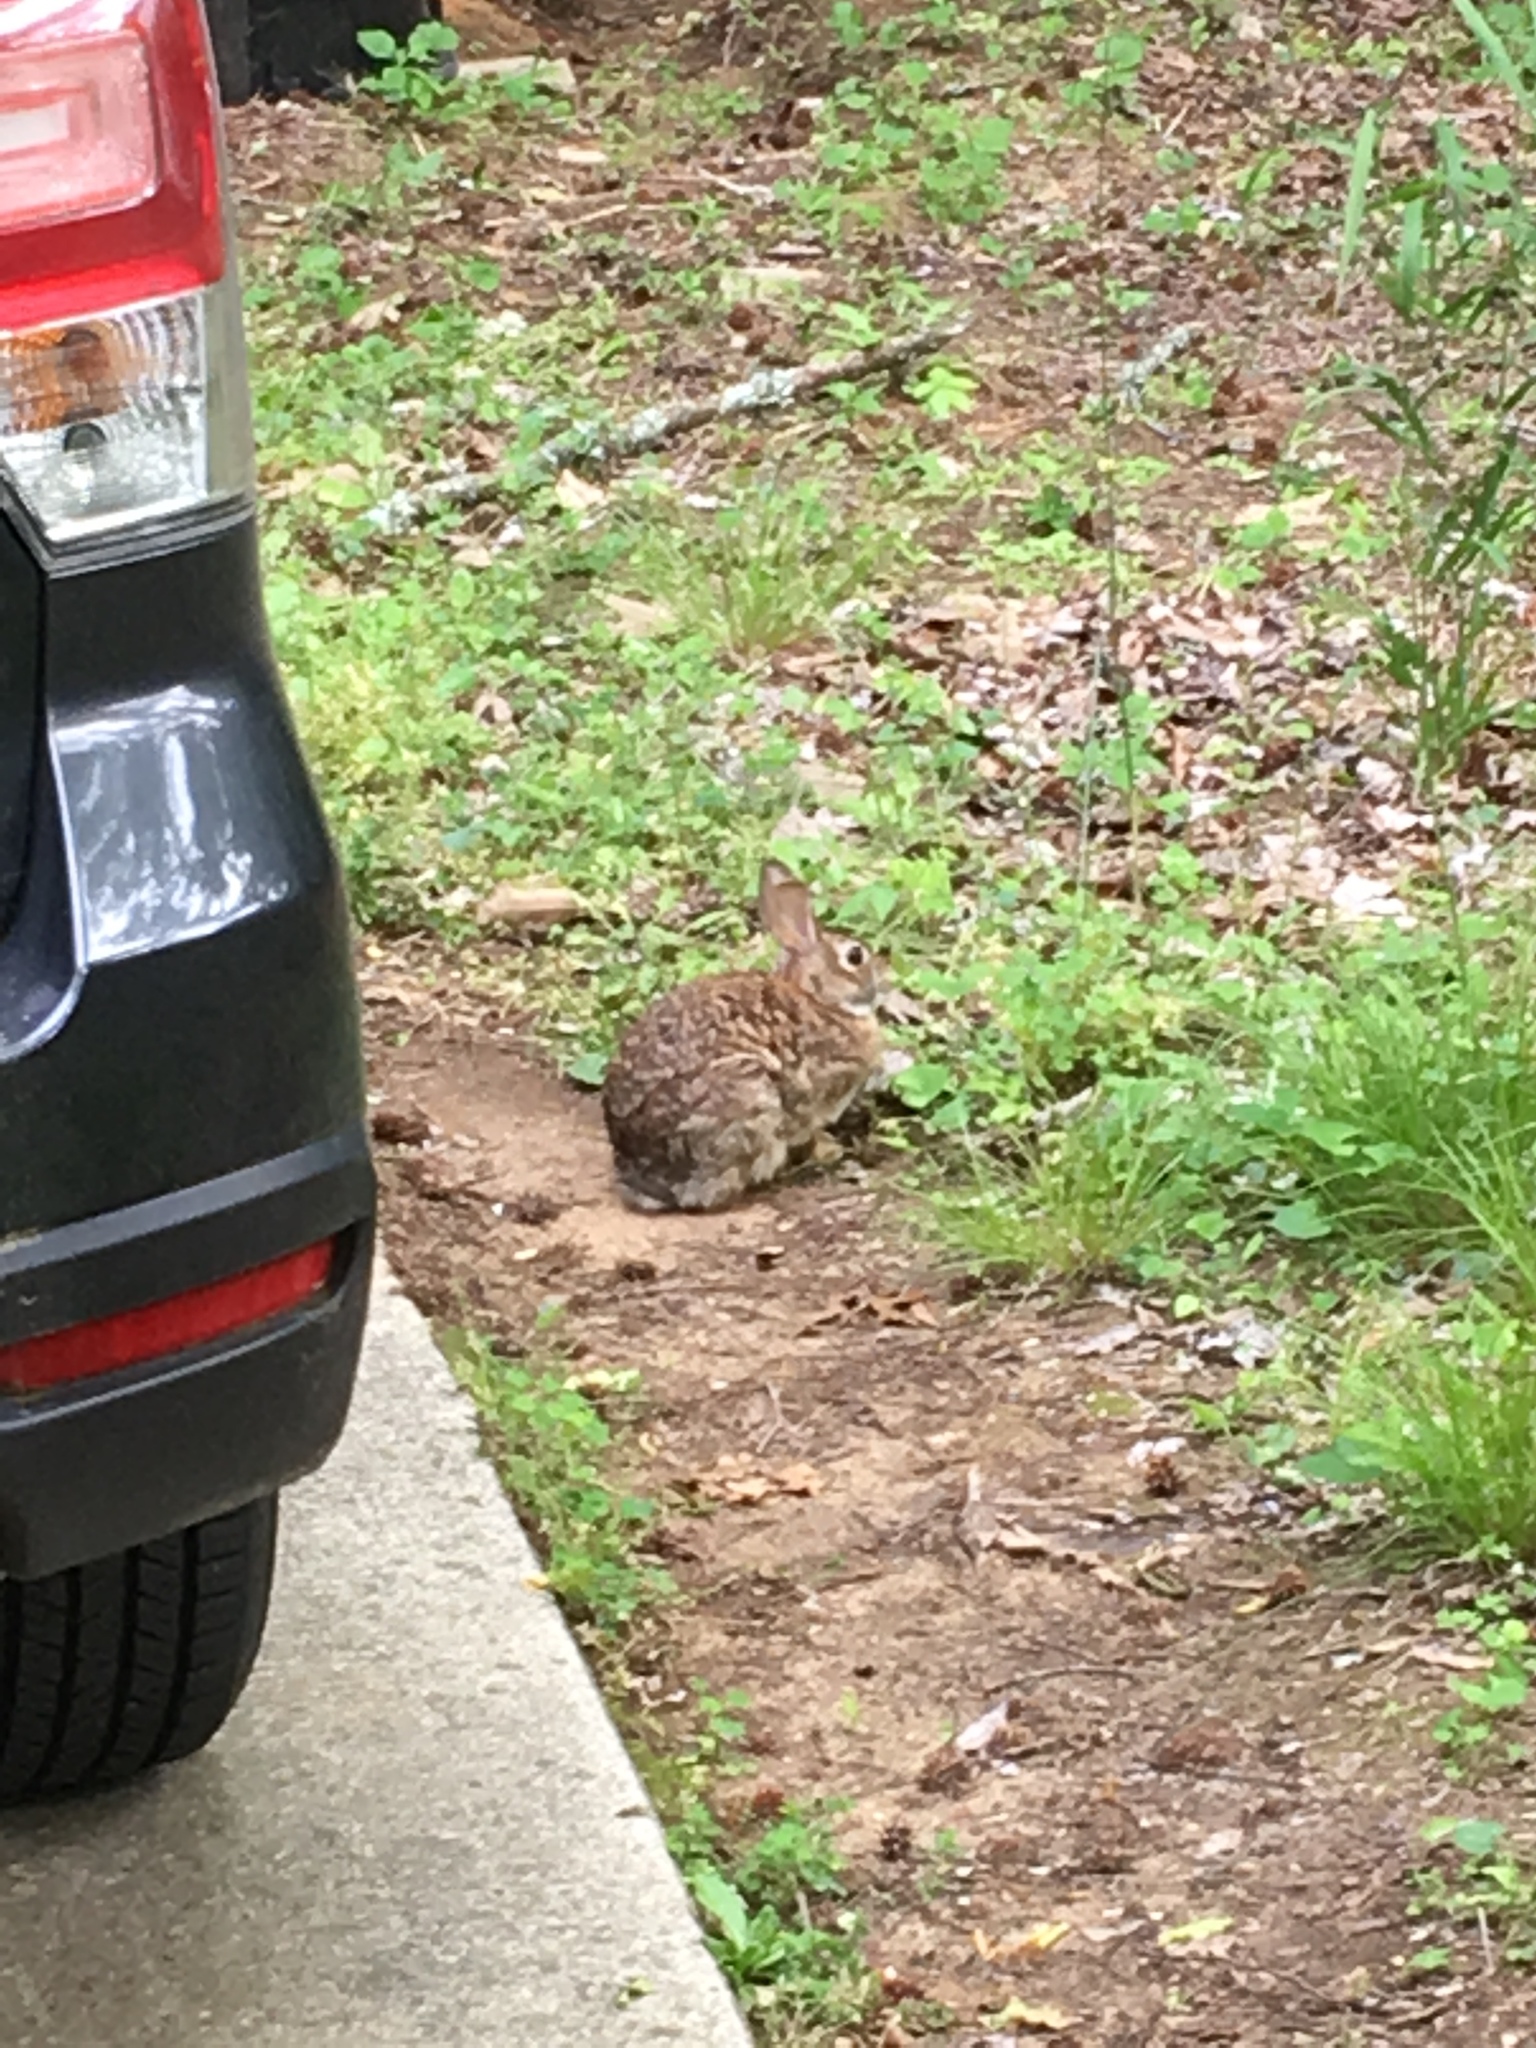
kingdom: Animalia
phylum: Chordata
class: Mammalia
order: Lagomorpha
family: Leporidae
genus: Sylvilagus
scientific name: Sylvilagus floridanus
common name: Eastern cottontail
